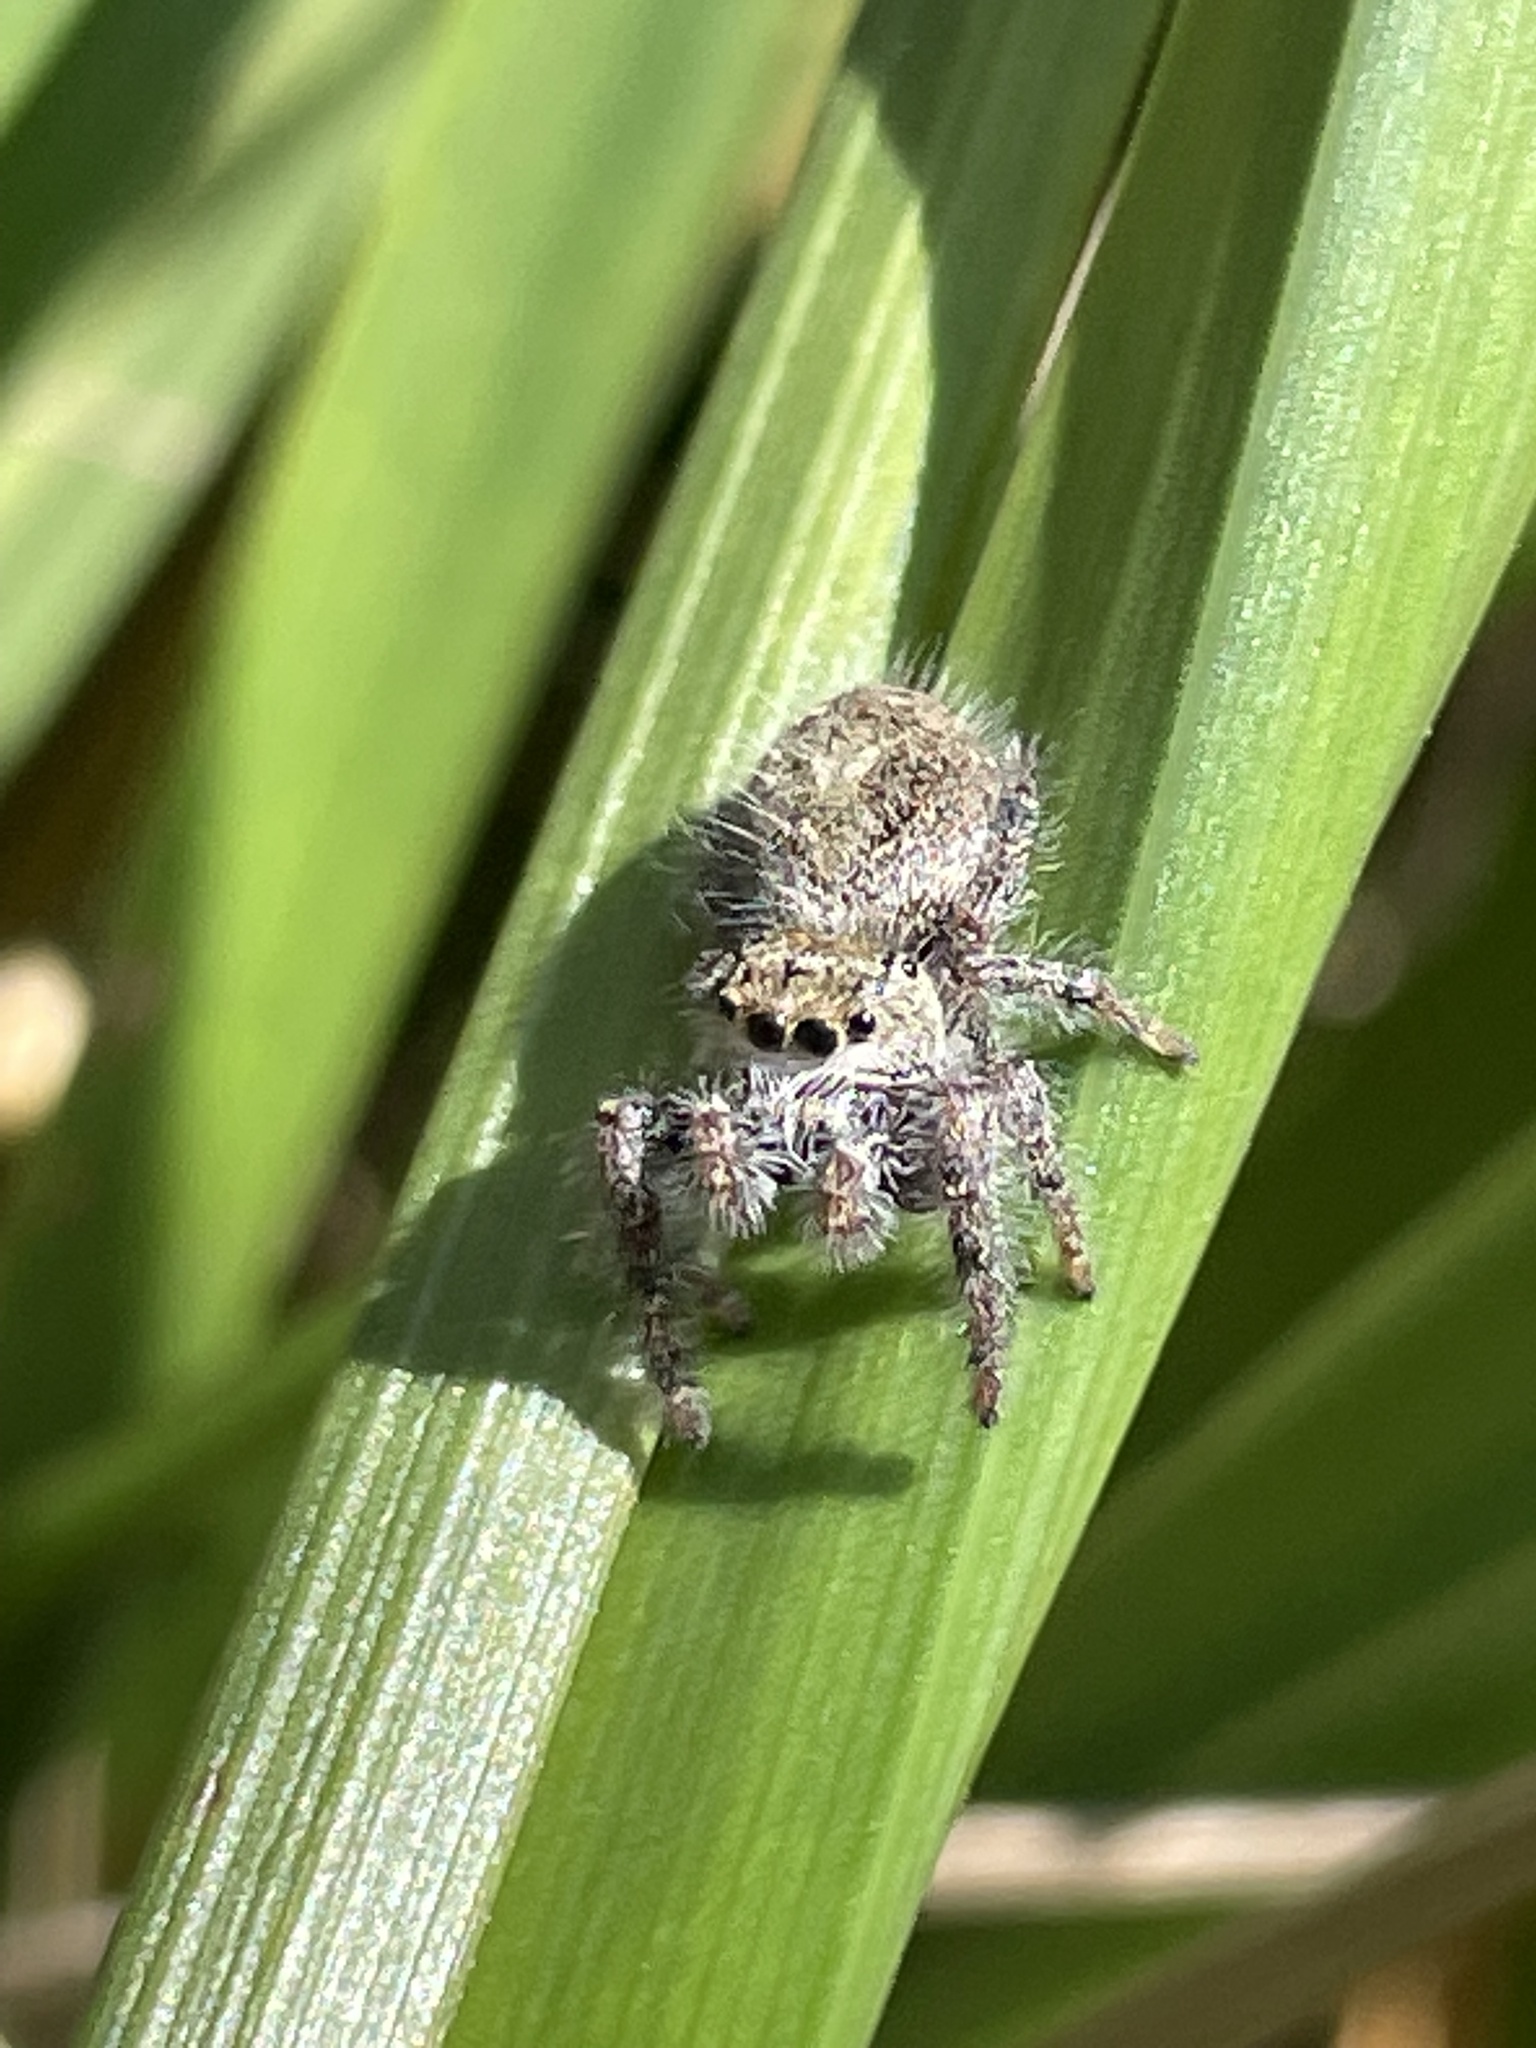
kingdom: Animalia
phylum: Arthropoda
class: Arachnida
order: Araneae
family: Salticidae
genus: Phidippus
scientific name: Phidippus princeps
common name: Grayish jumping spider
